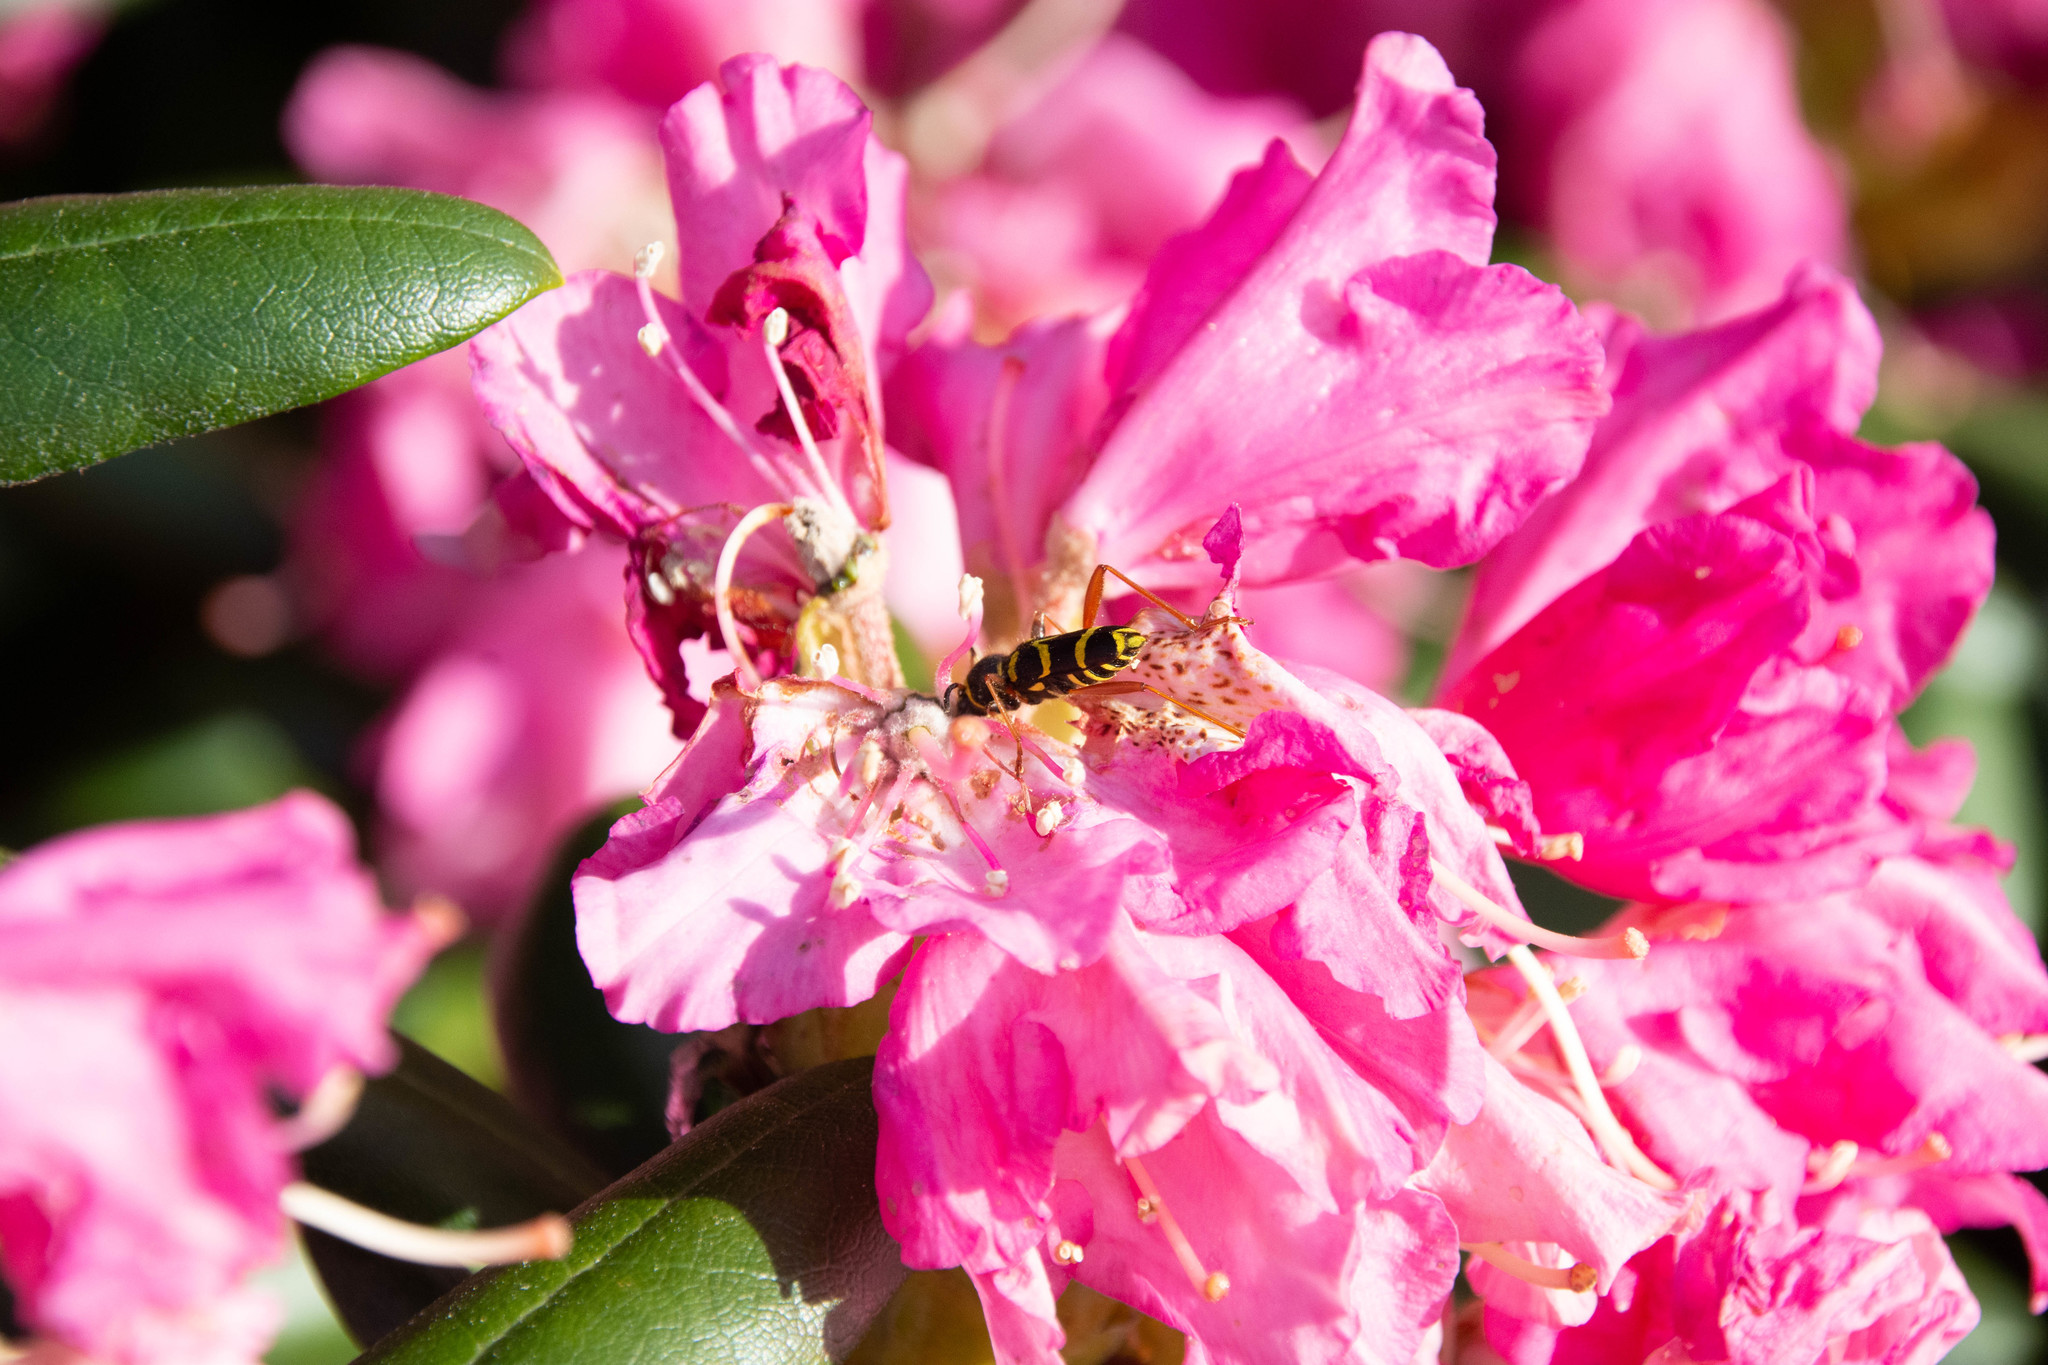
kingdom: Animalia
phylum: Arthropoda
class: Insecta
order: Coleoptera
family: Cerambycidae
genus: Clytus
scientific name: Clytus arietis
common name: Wasp beetle
